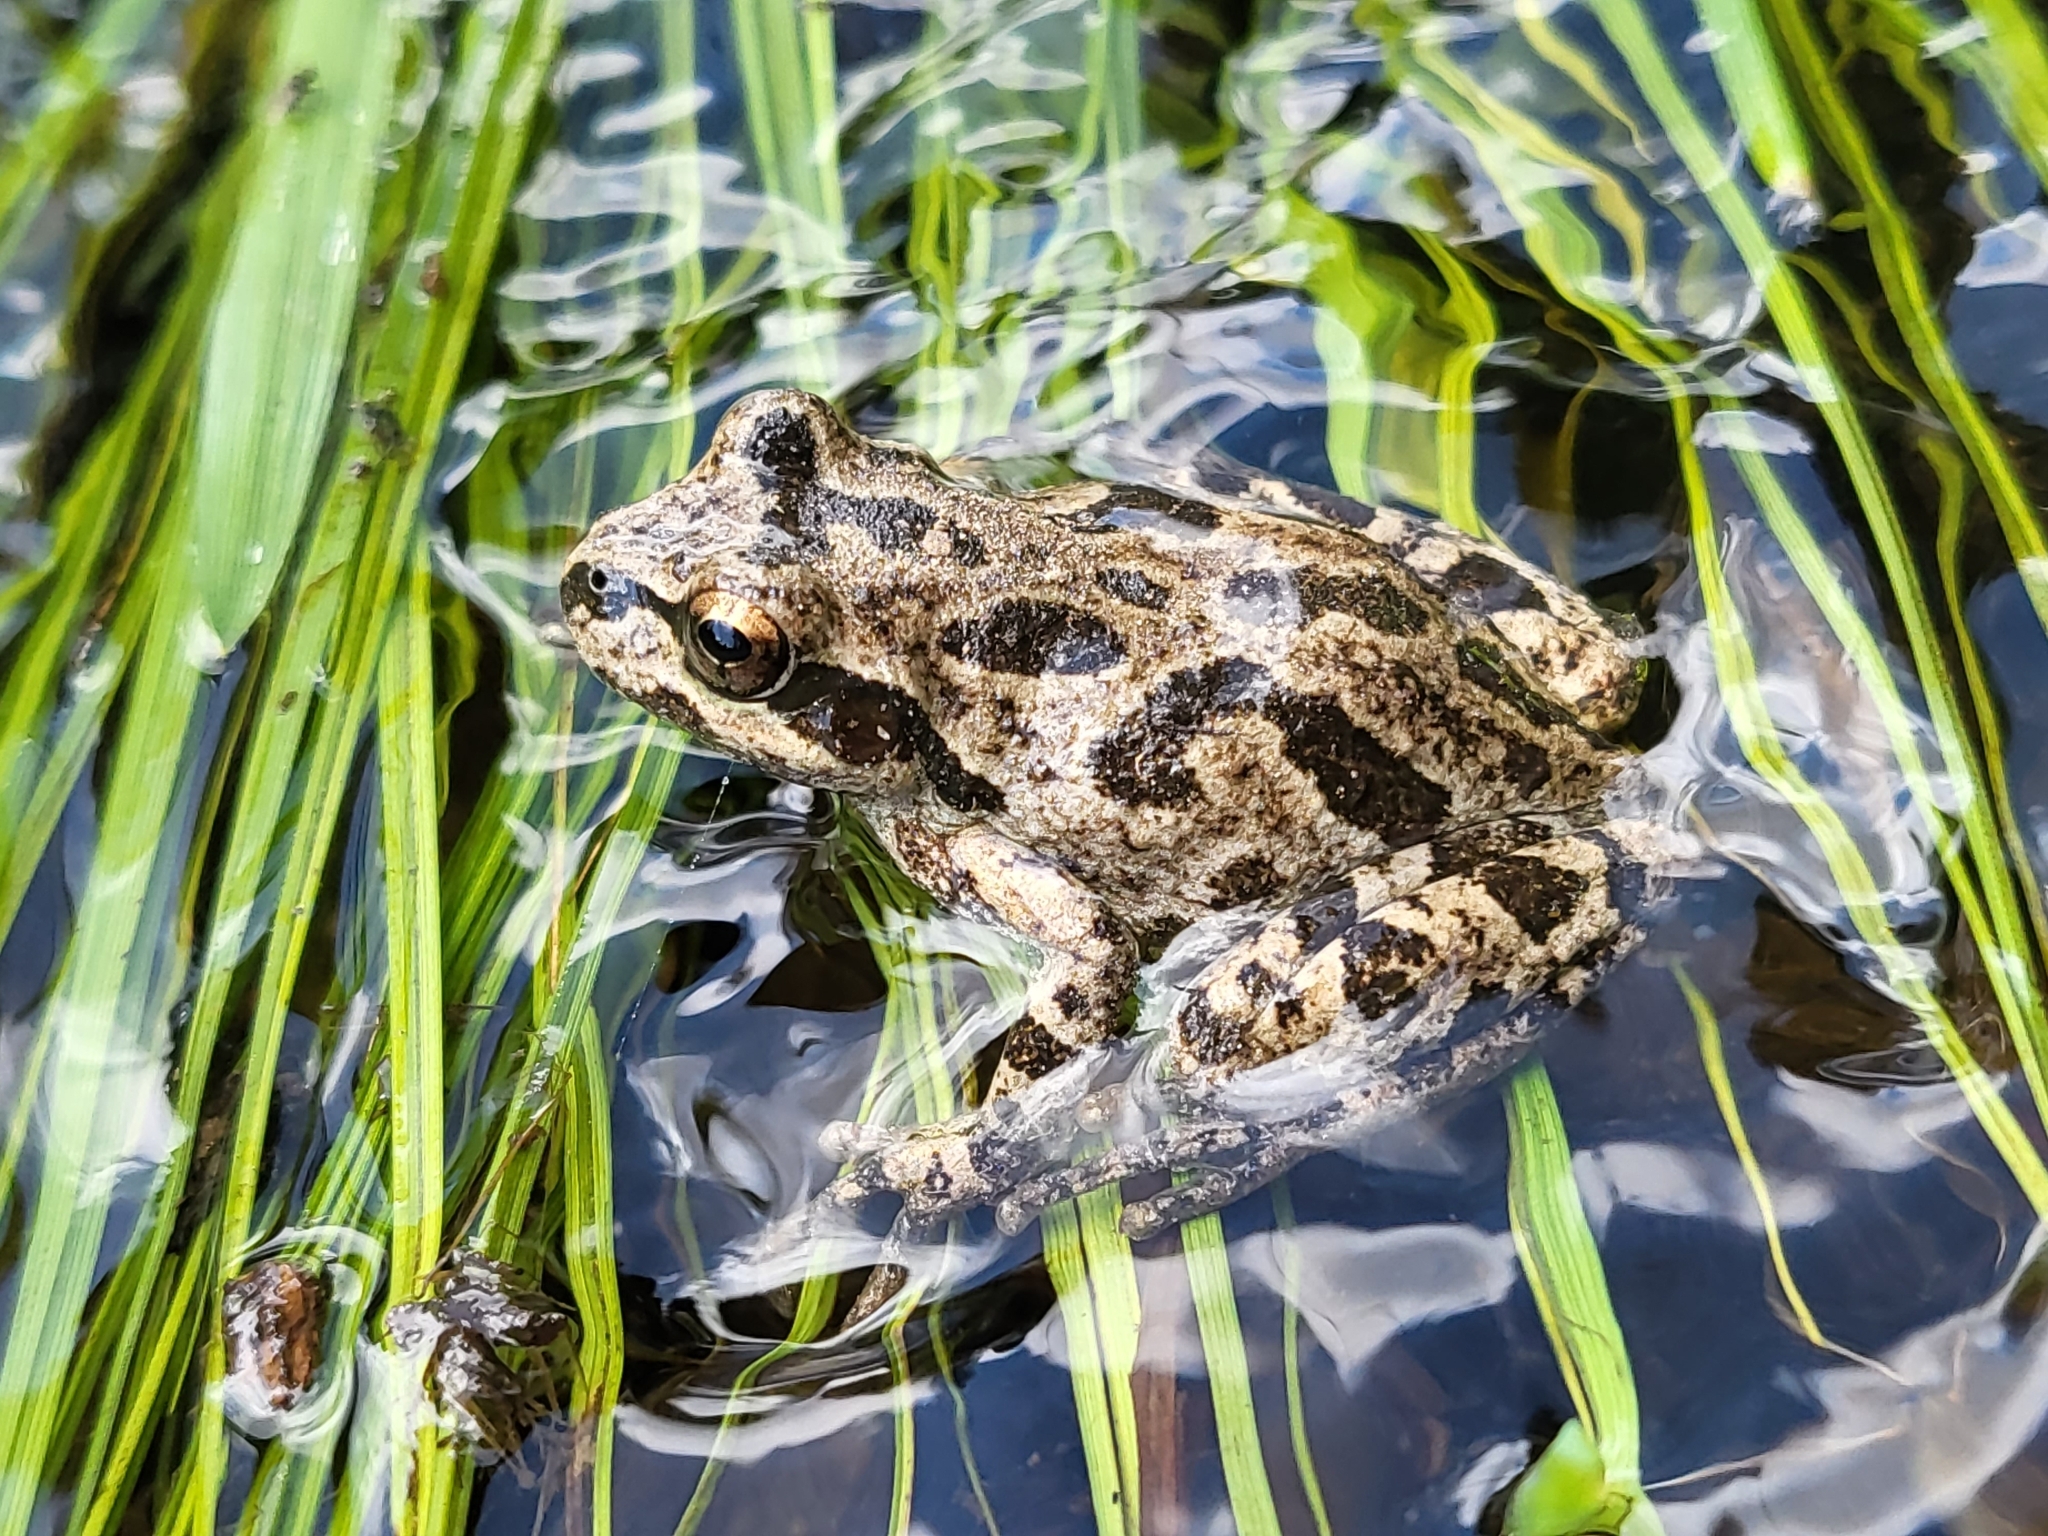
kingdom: Animalia
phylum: Chordata
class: Amphibia
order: Anura
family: Hylidae
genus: Pseudacris
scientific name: Pseudacris regilla
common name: Pacific chorus frog
